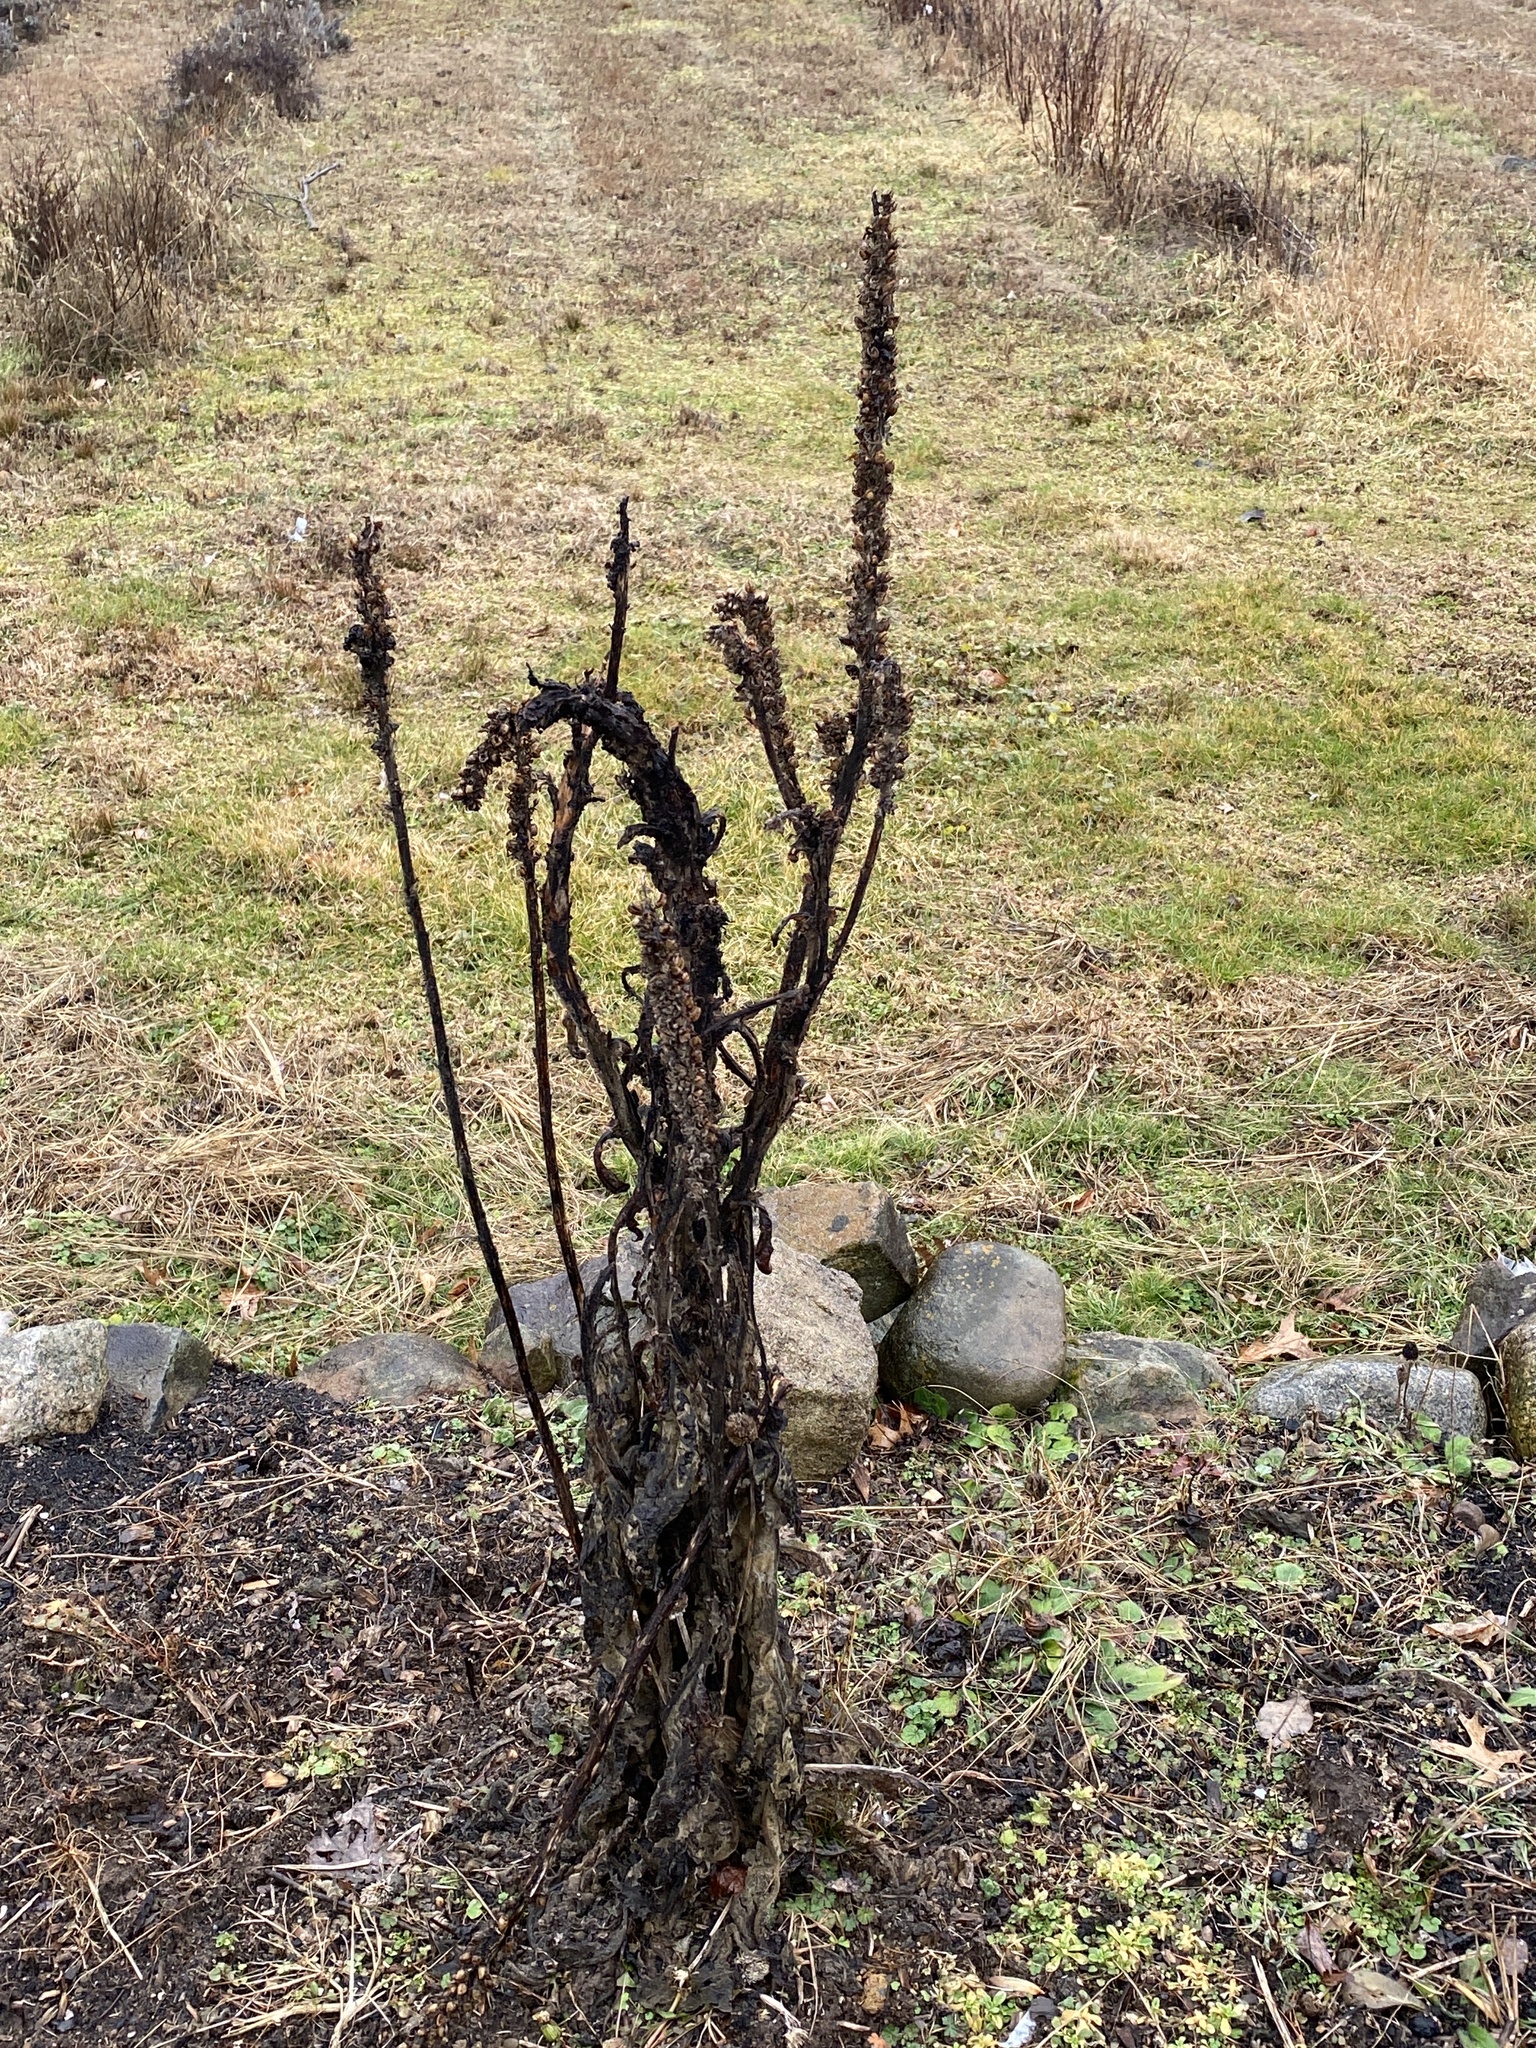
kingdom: Plantae
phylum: Tracheophyta
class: Magnoliopsida
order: Lamiales
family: Scrophulariaceae
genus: Verbascum
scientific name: Verbascum thapsus
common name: Common mullein
